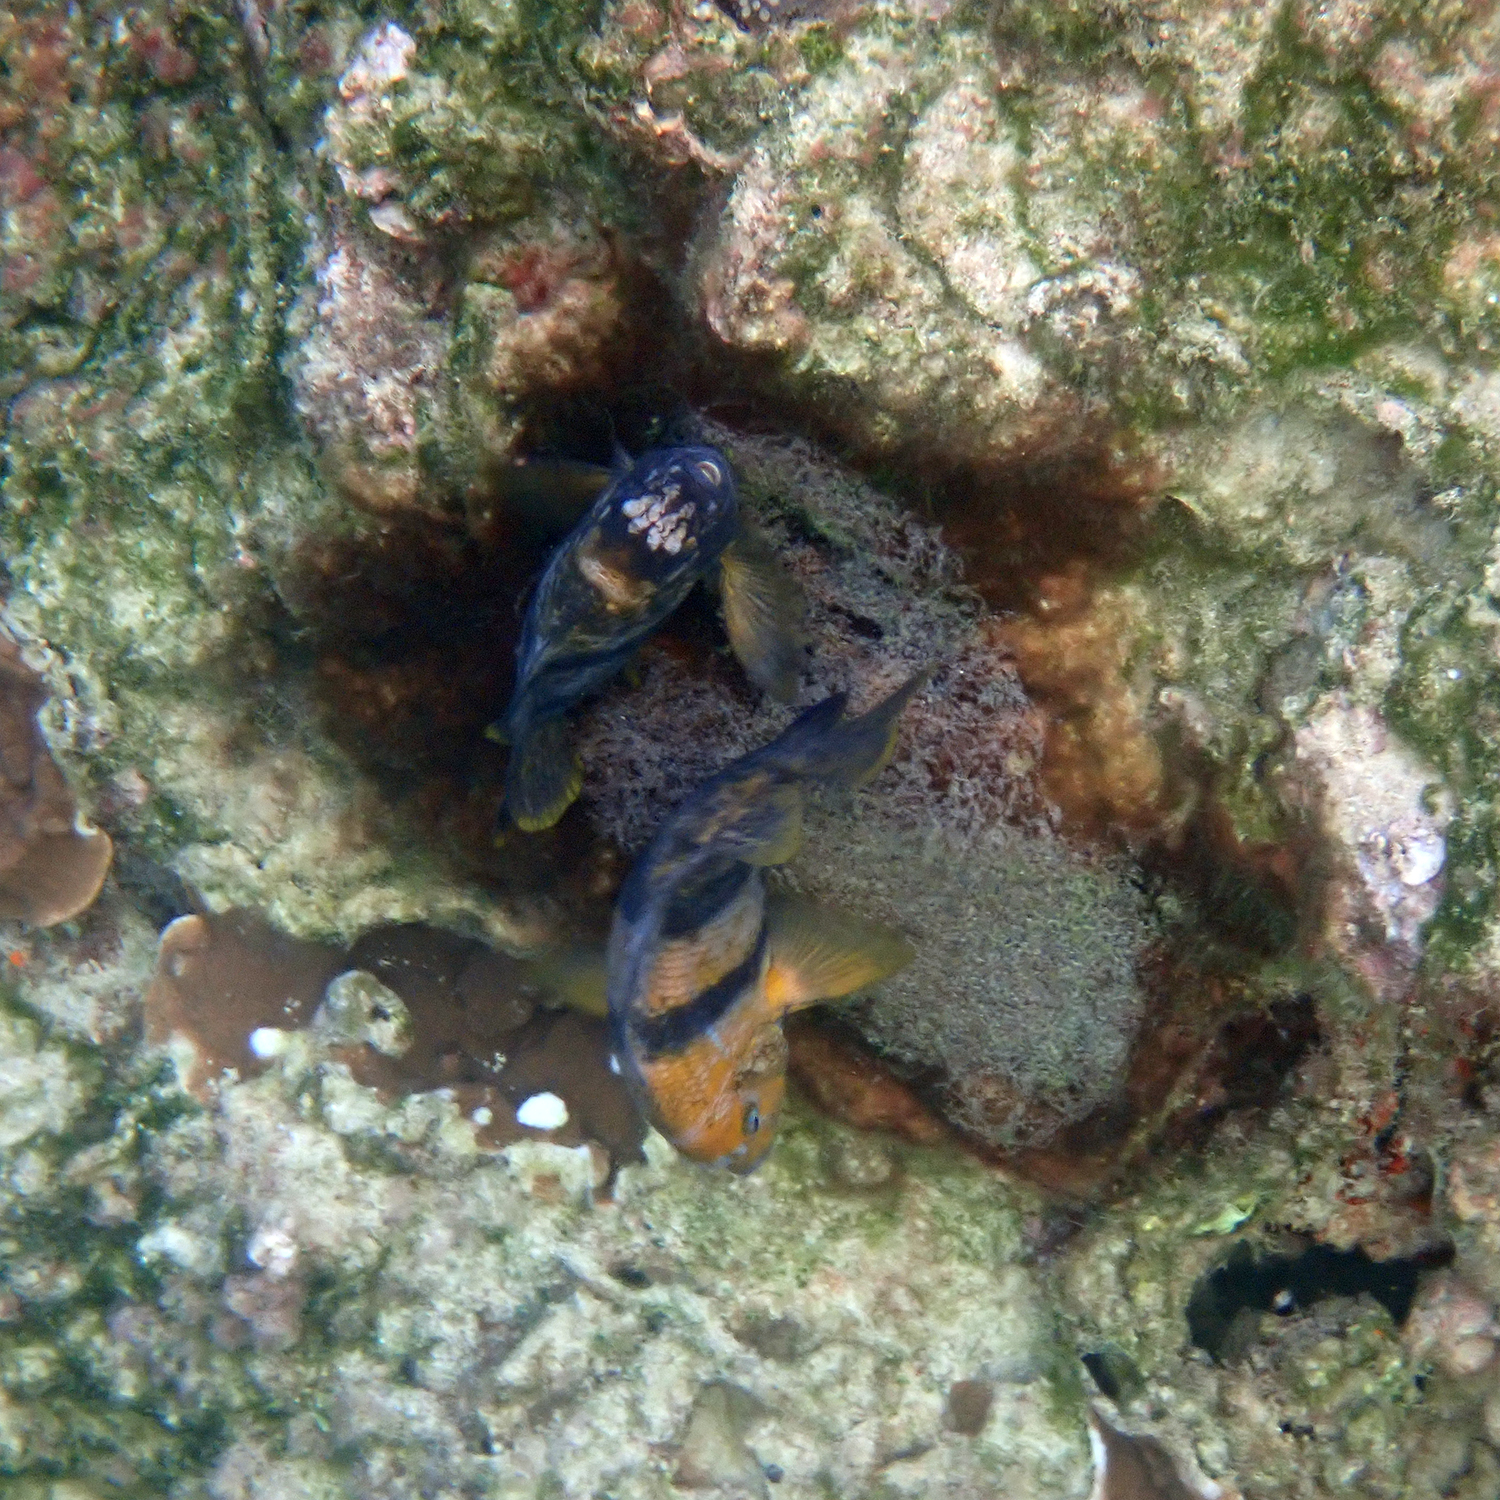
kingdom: Animalia
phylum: Chordata
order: Perciformes
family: Pomacentridae
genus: Parma
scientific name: Parma polylepis
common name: Banded parma
